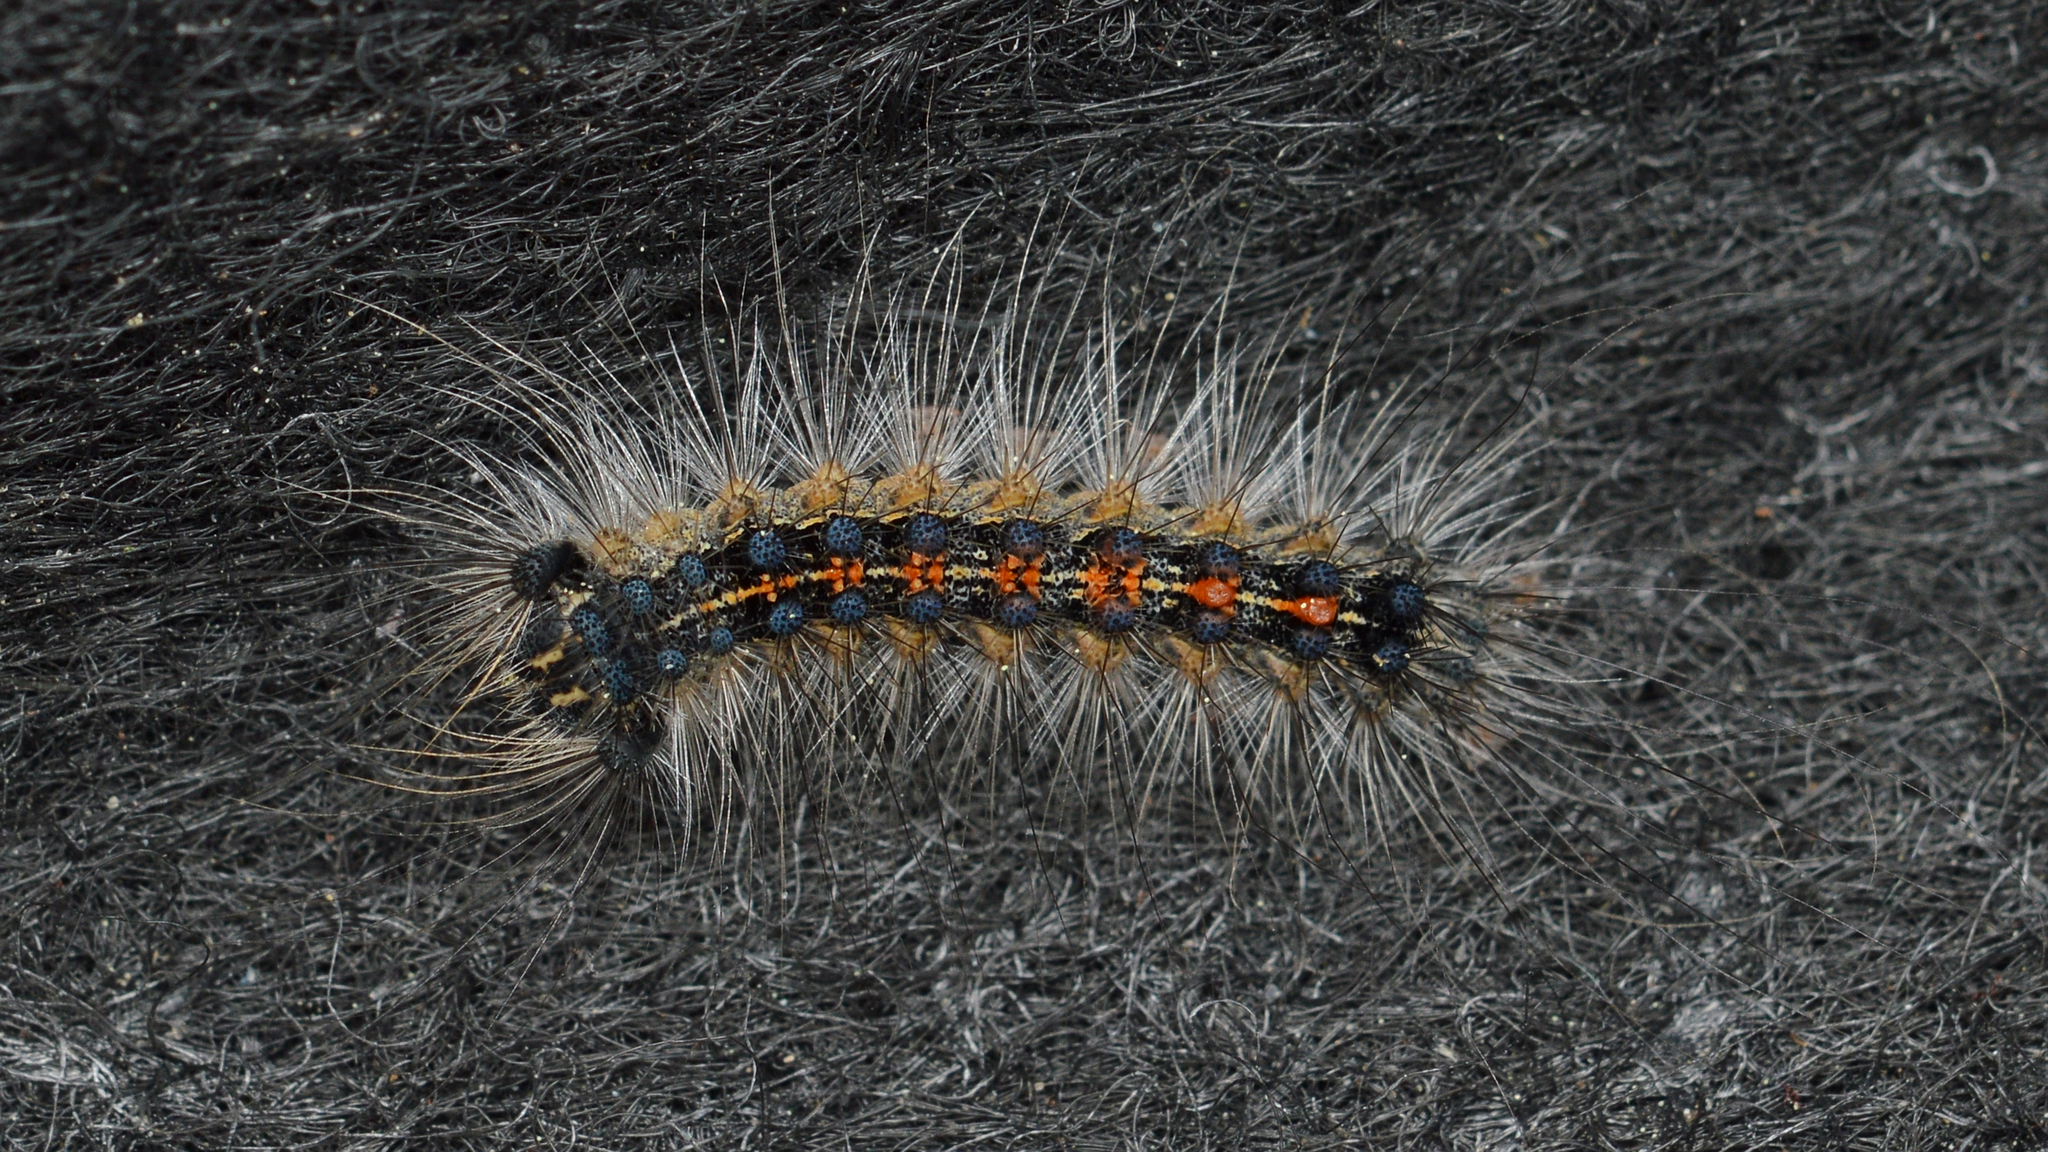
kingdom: Animalia
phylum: Arthropoda
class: Insecta
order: Lepidoptera
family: Erebidae
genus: Lymantria
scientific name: Lymantria dispar
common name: Gypsy moth
